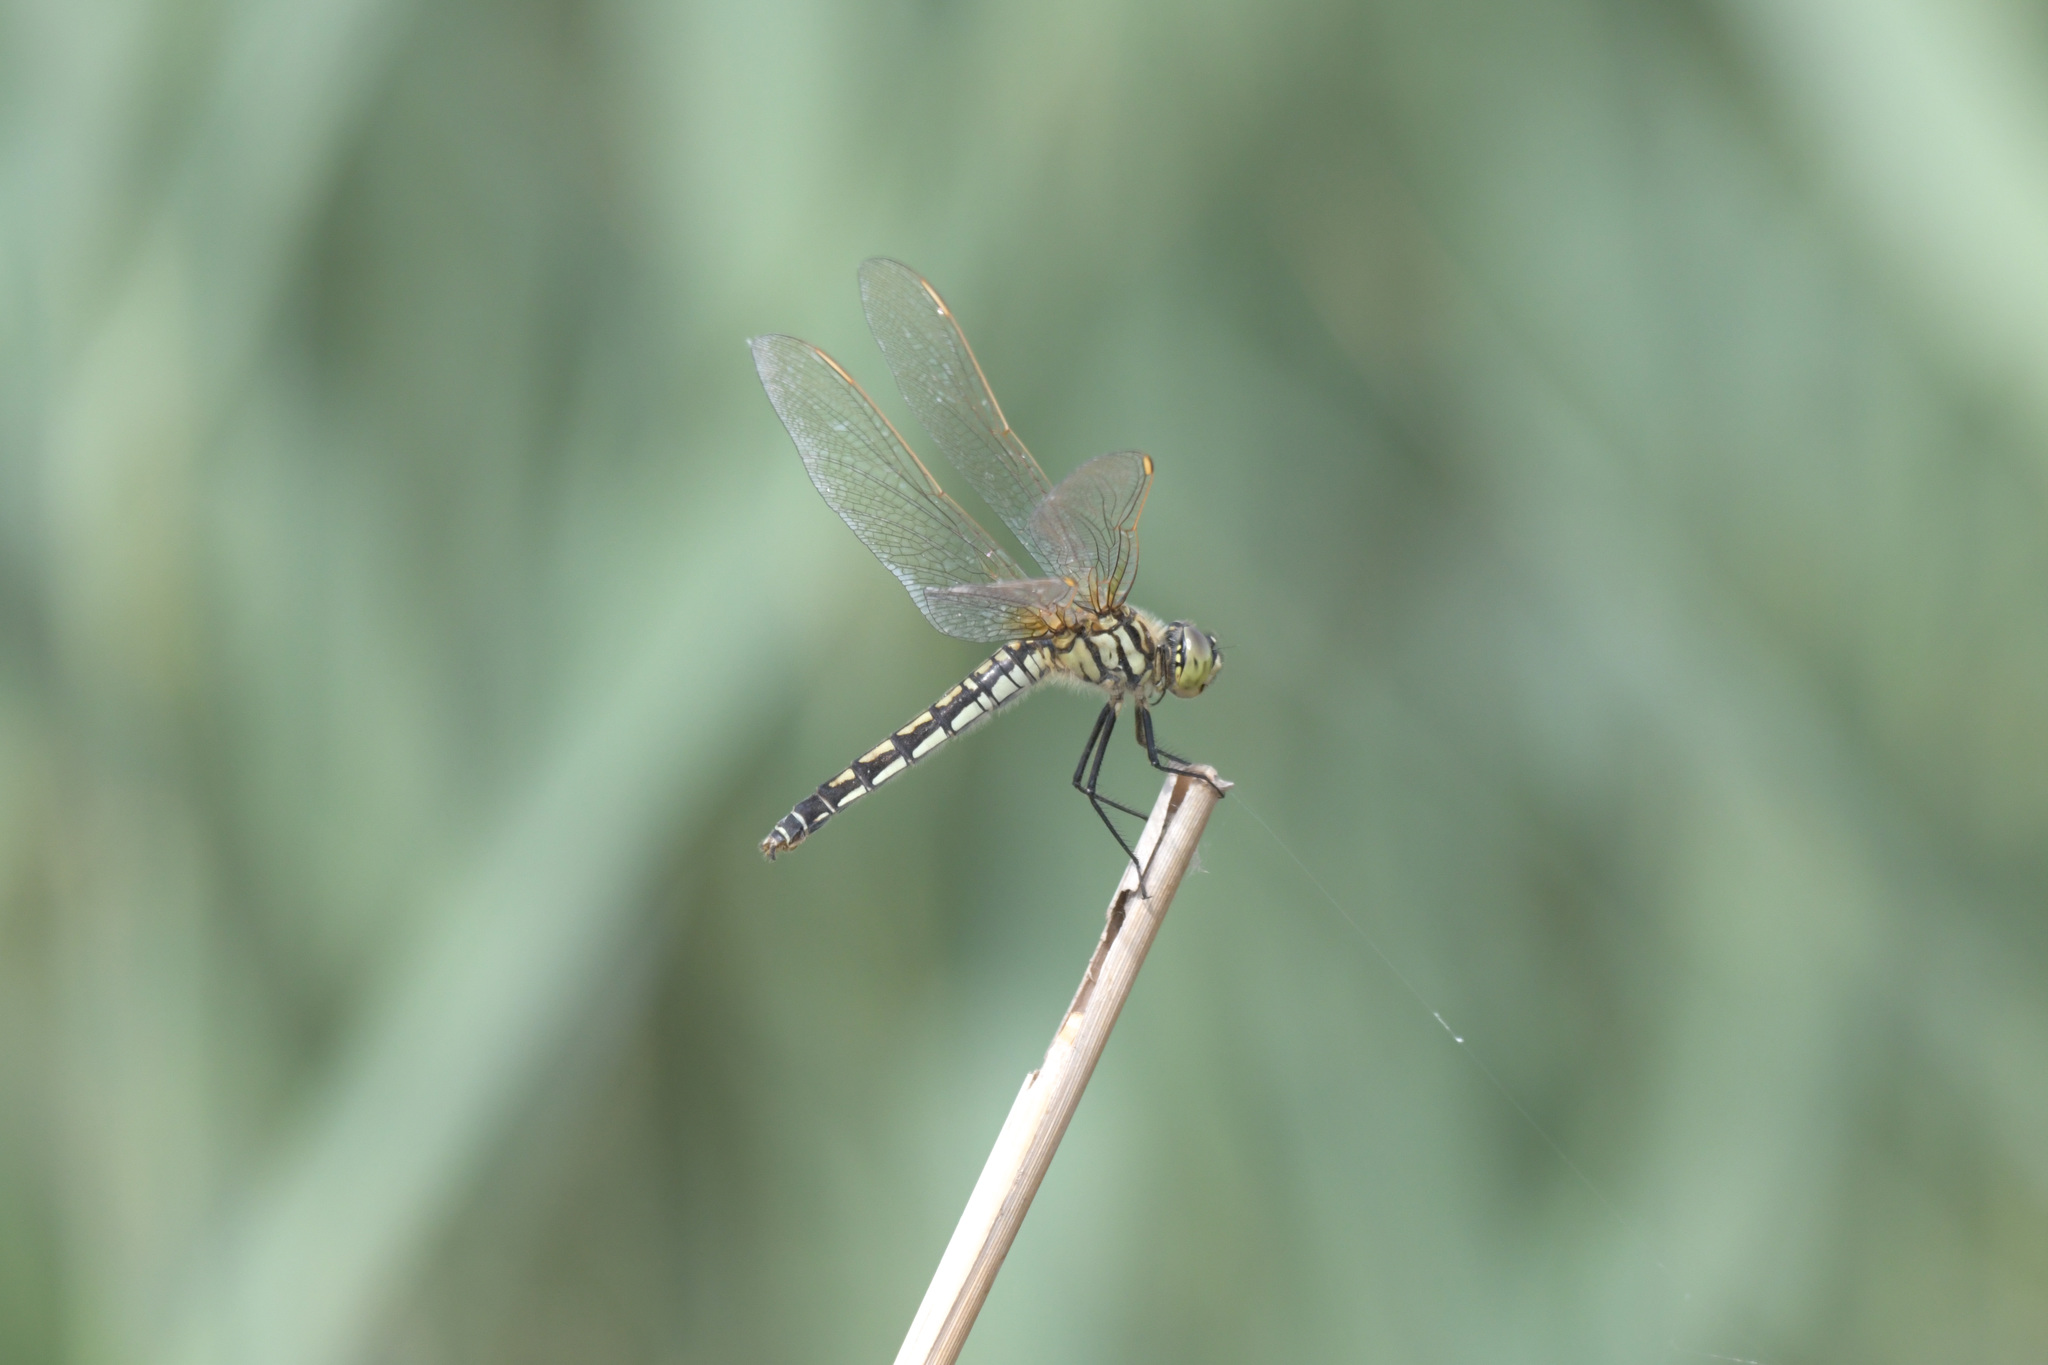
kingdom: Animalia
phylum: Arthropoda
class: Insecta
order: Odonata
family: Libellulidae
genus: Deielia
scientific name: Deielia phaon
